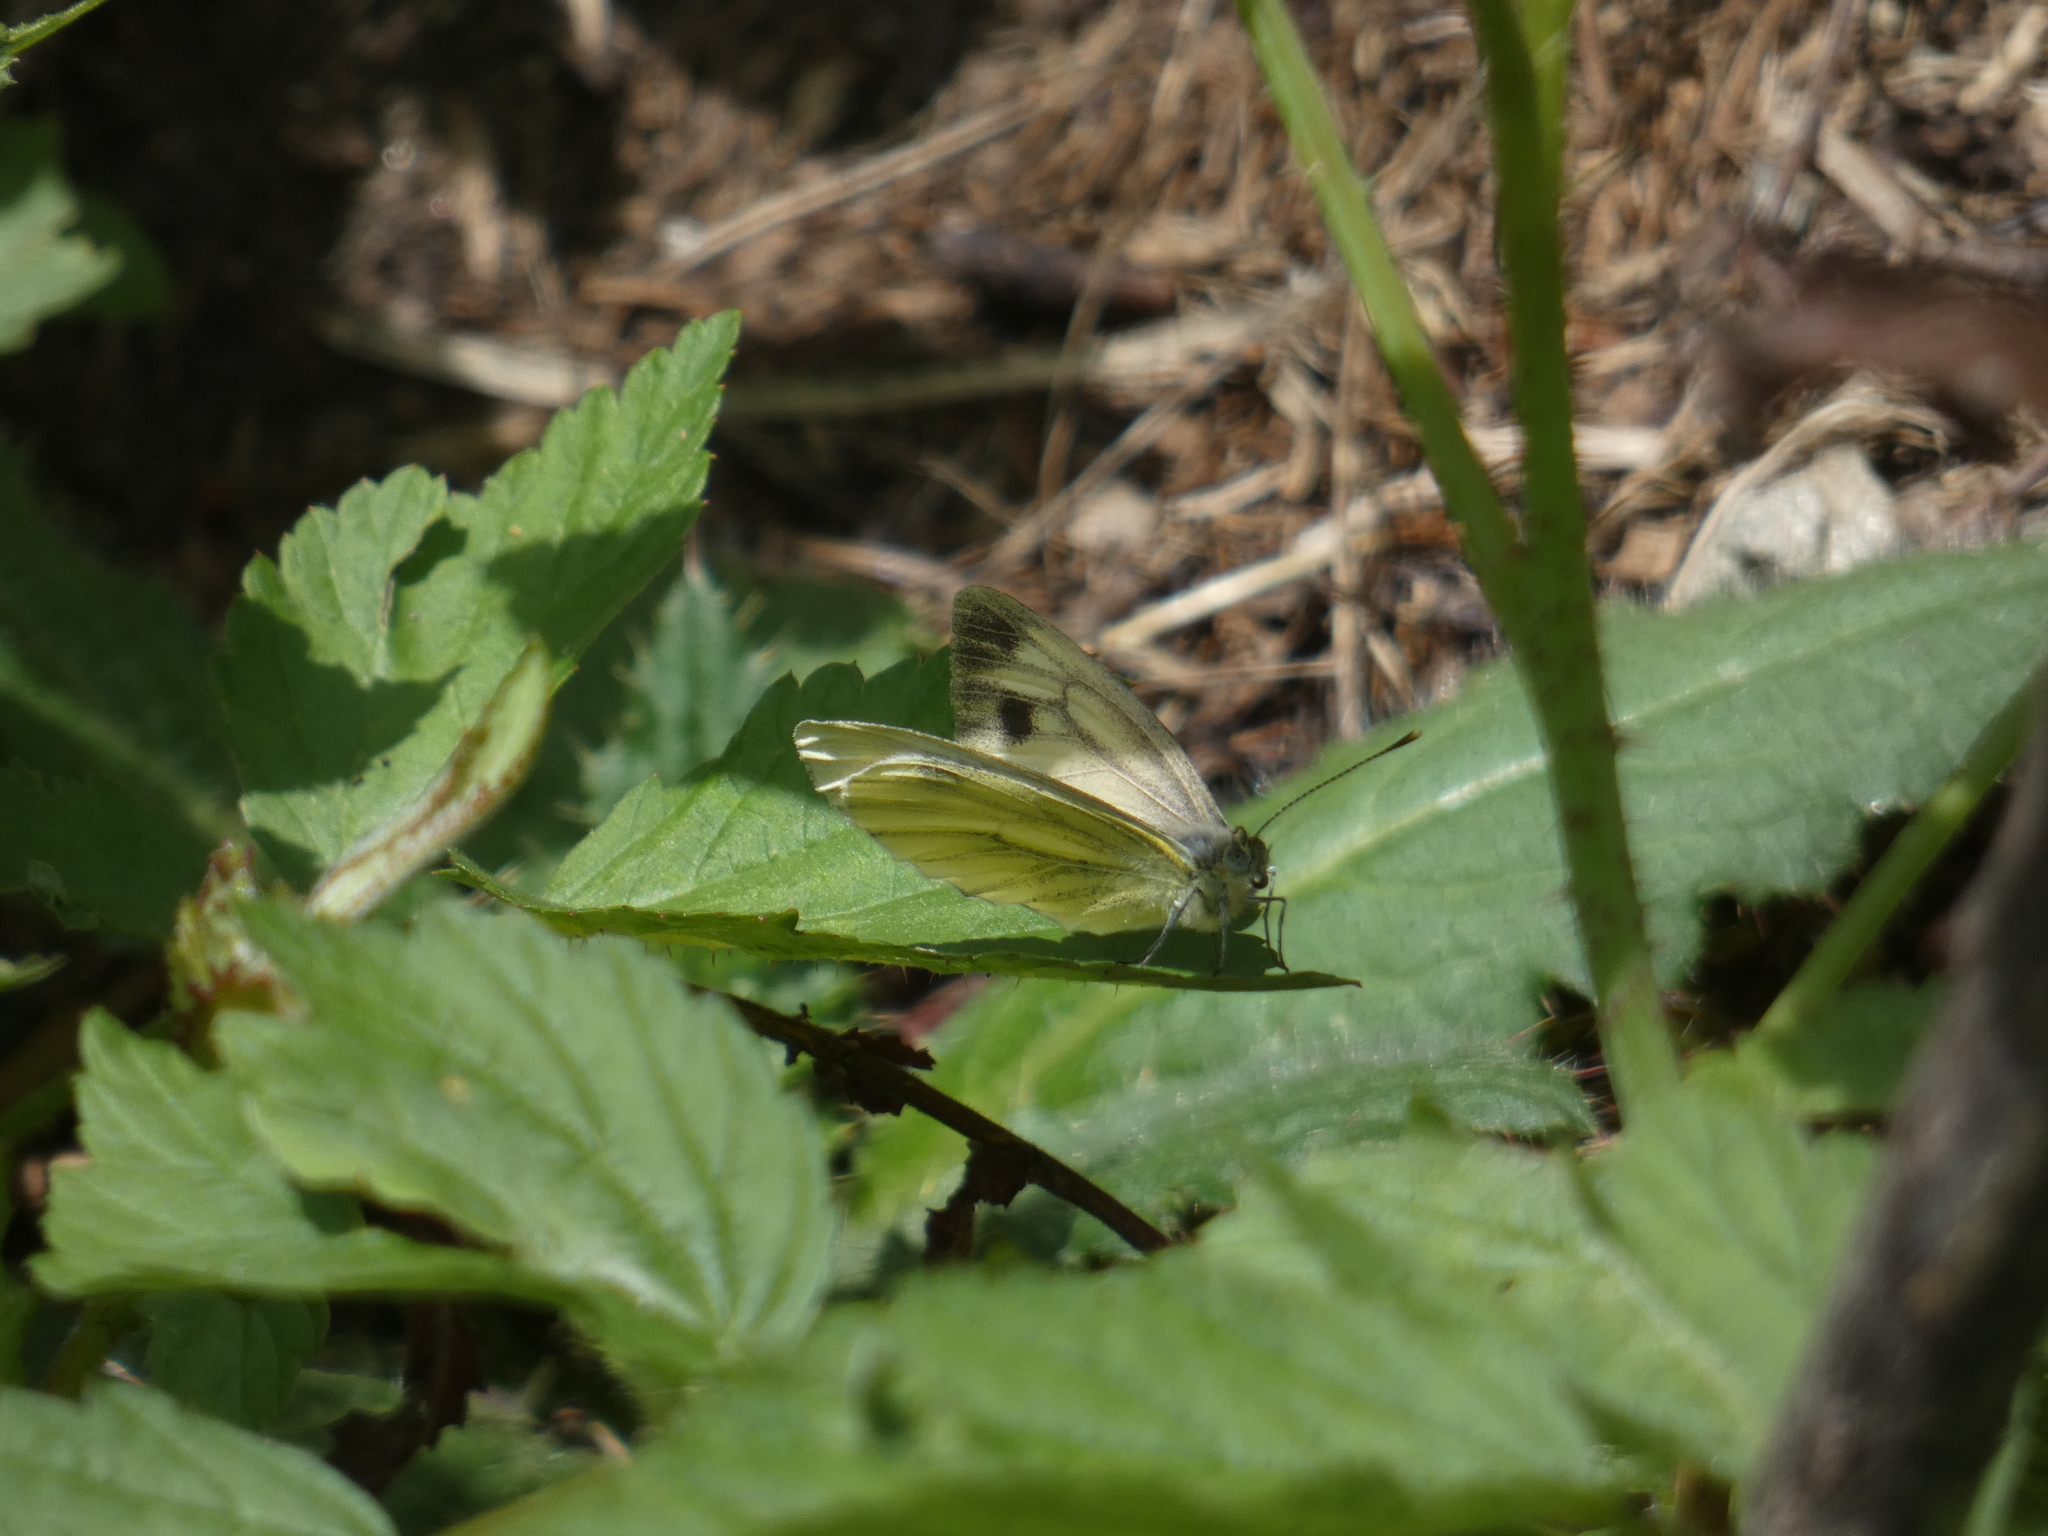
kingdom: Animalia
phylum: Arthropoda
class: Insecta
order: Lepidoptera
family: Pieridae
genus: Pieris
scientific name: Pieris bryoniae
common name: Mountain green-veined white
